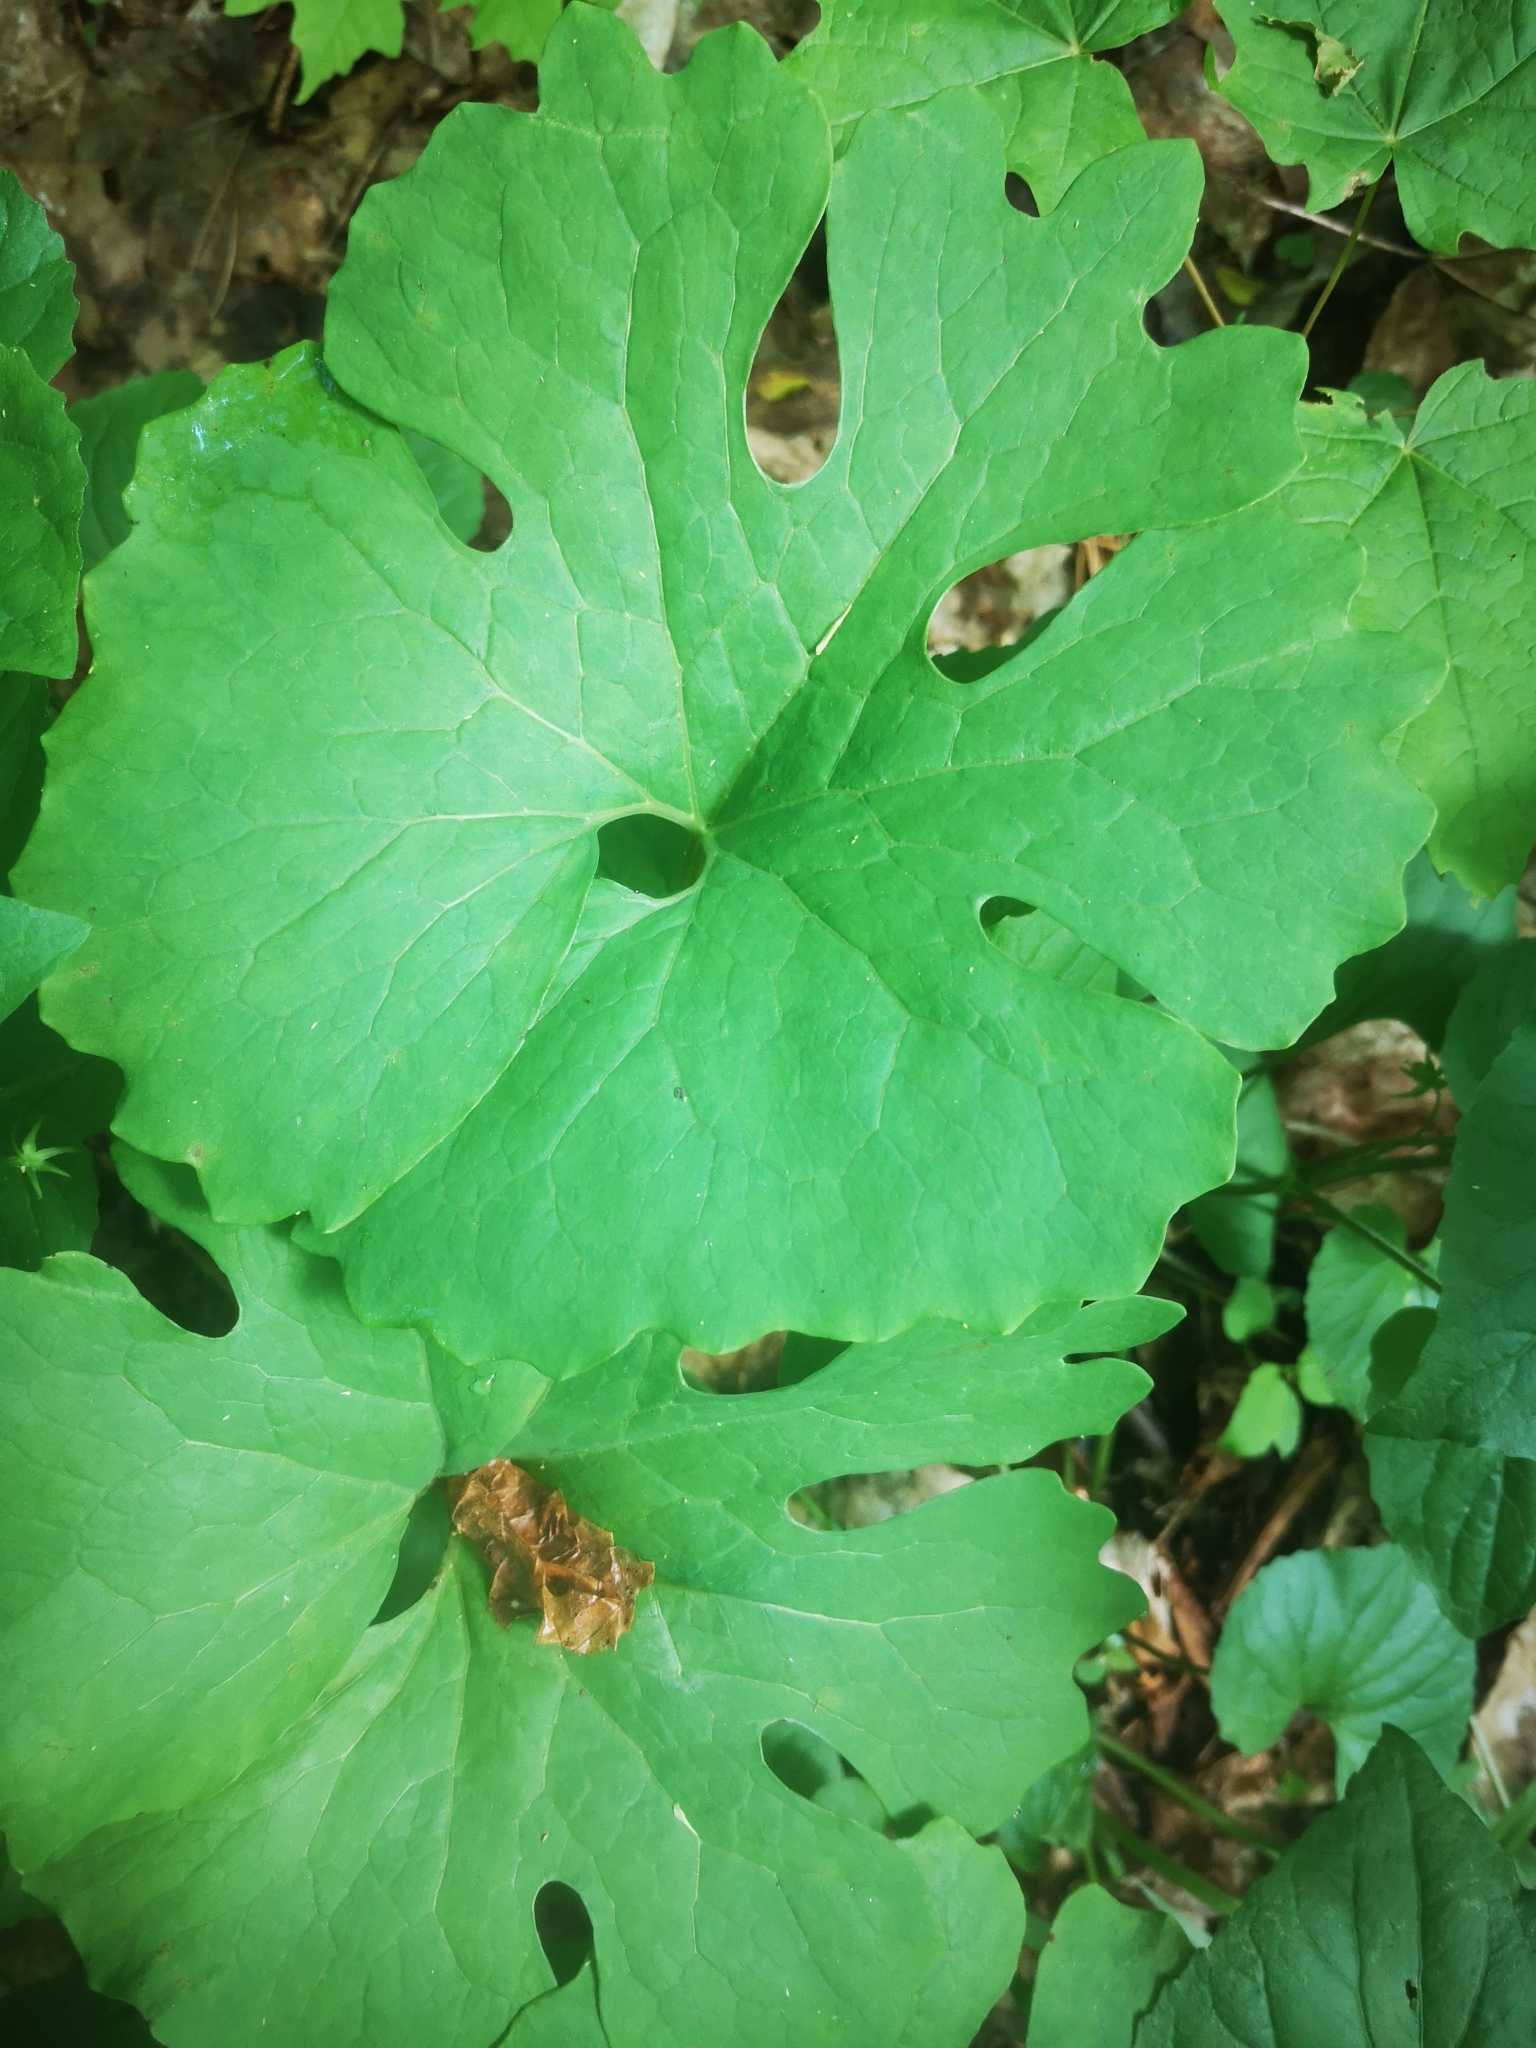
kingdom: Plantae
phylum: Tracheophyta
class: Magnoliopsida
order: Ranunculales
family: Papaveraceae
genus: Sanguinaria
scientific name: Sanguinaria canadensis
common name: Bloodroot
